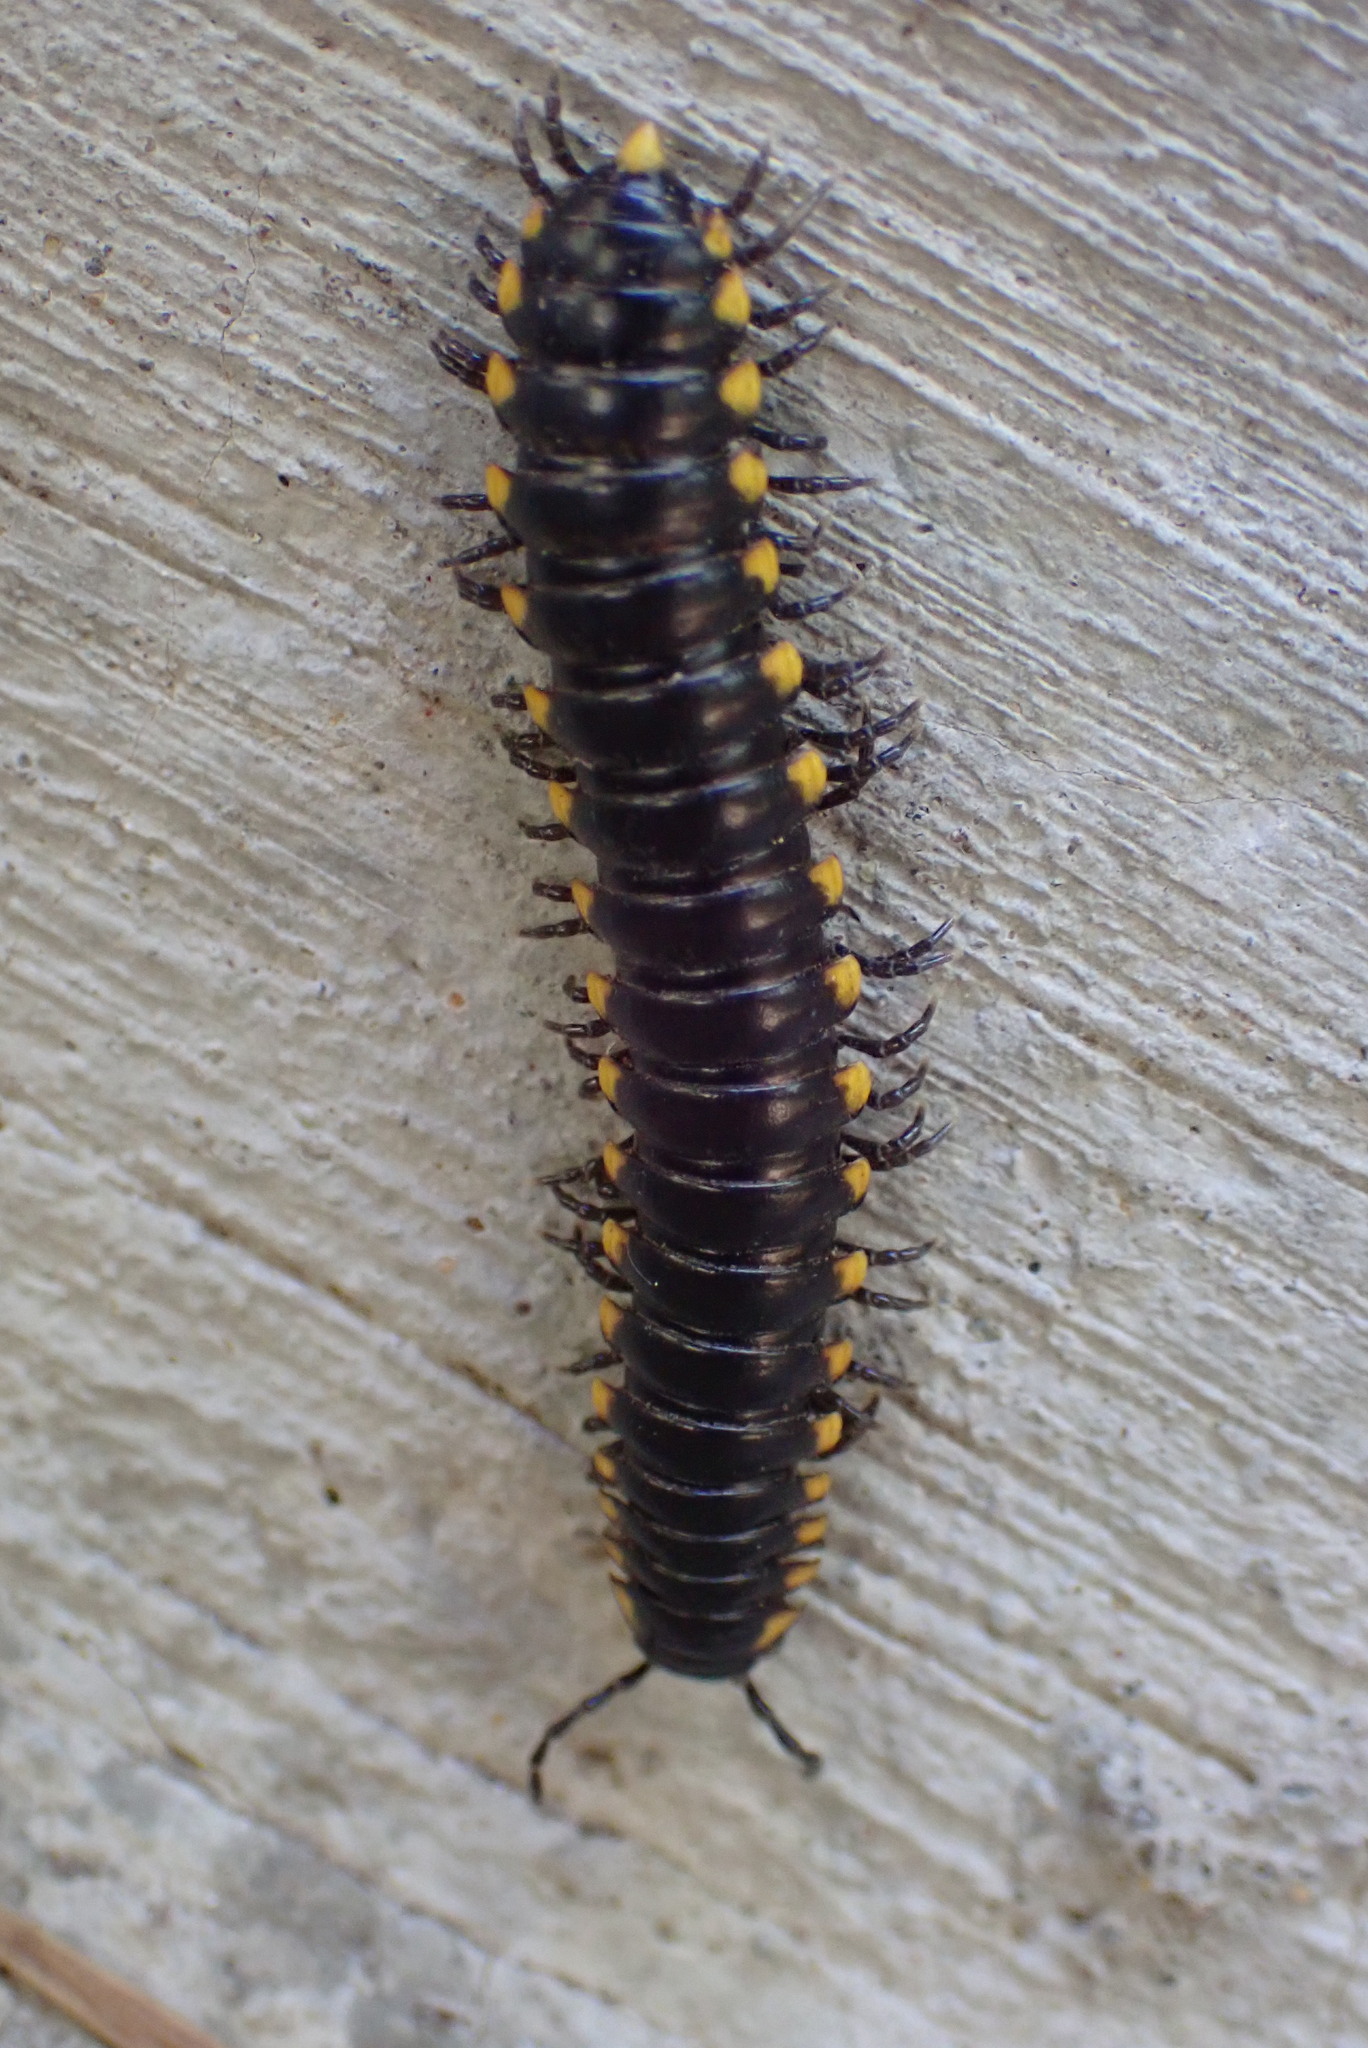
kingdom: Animalia
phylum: Arthropoda
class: Diplopoda
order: Polydesmida
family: Xystodesmidae
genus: Harpaphe
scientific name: Harpaphe haydeniana
